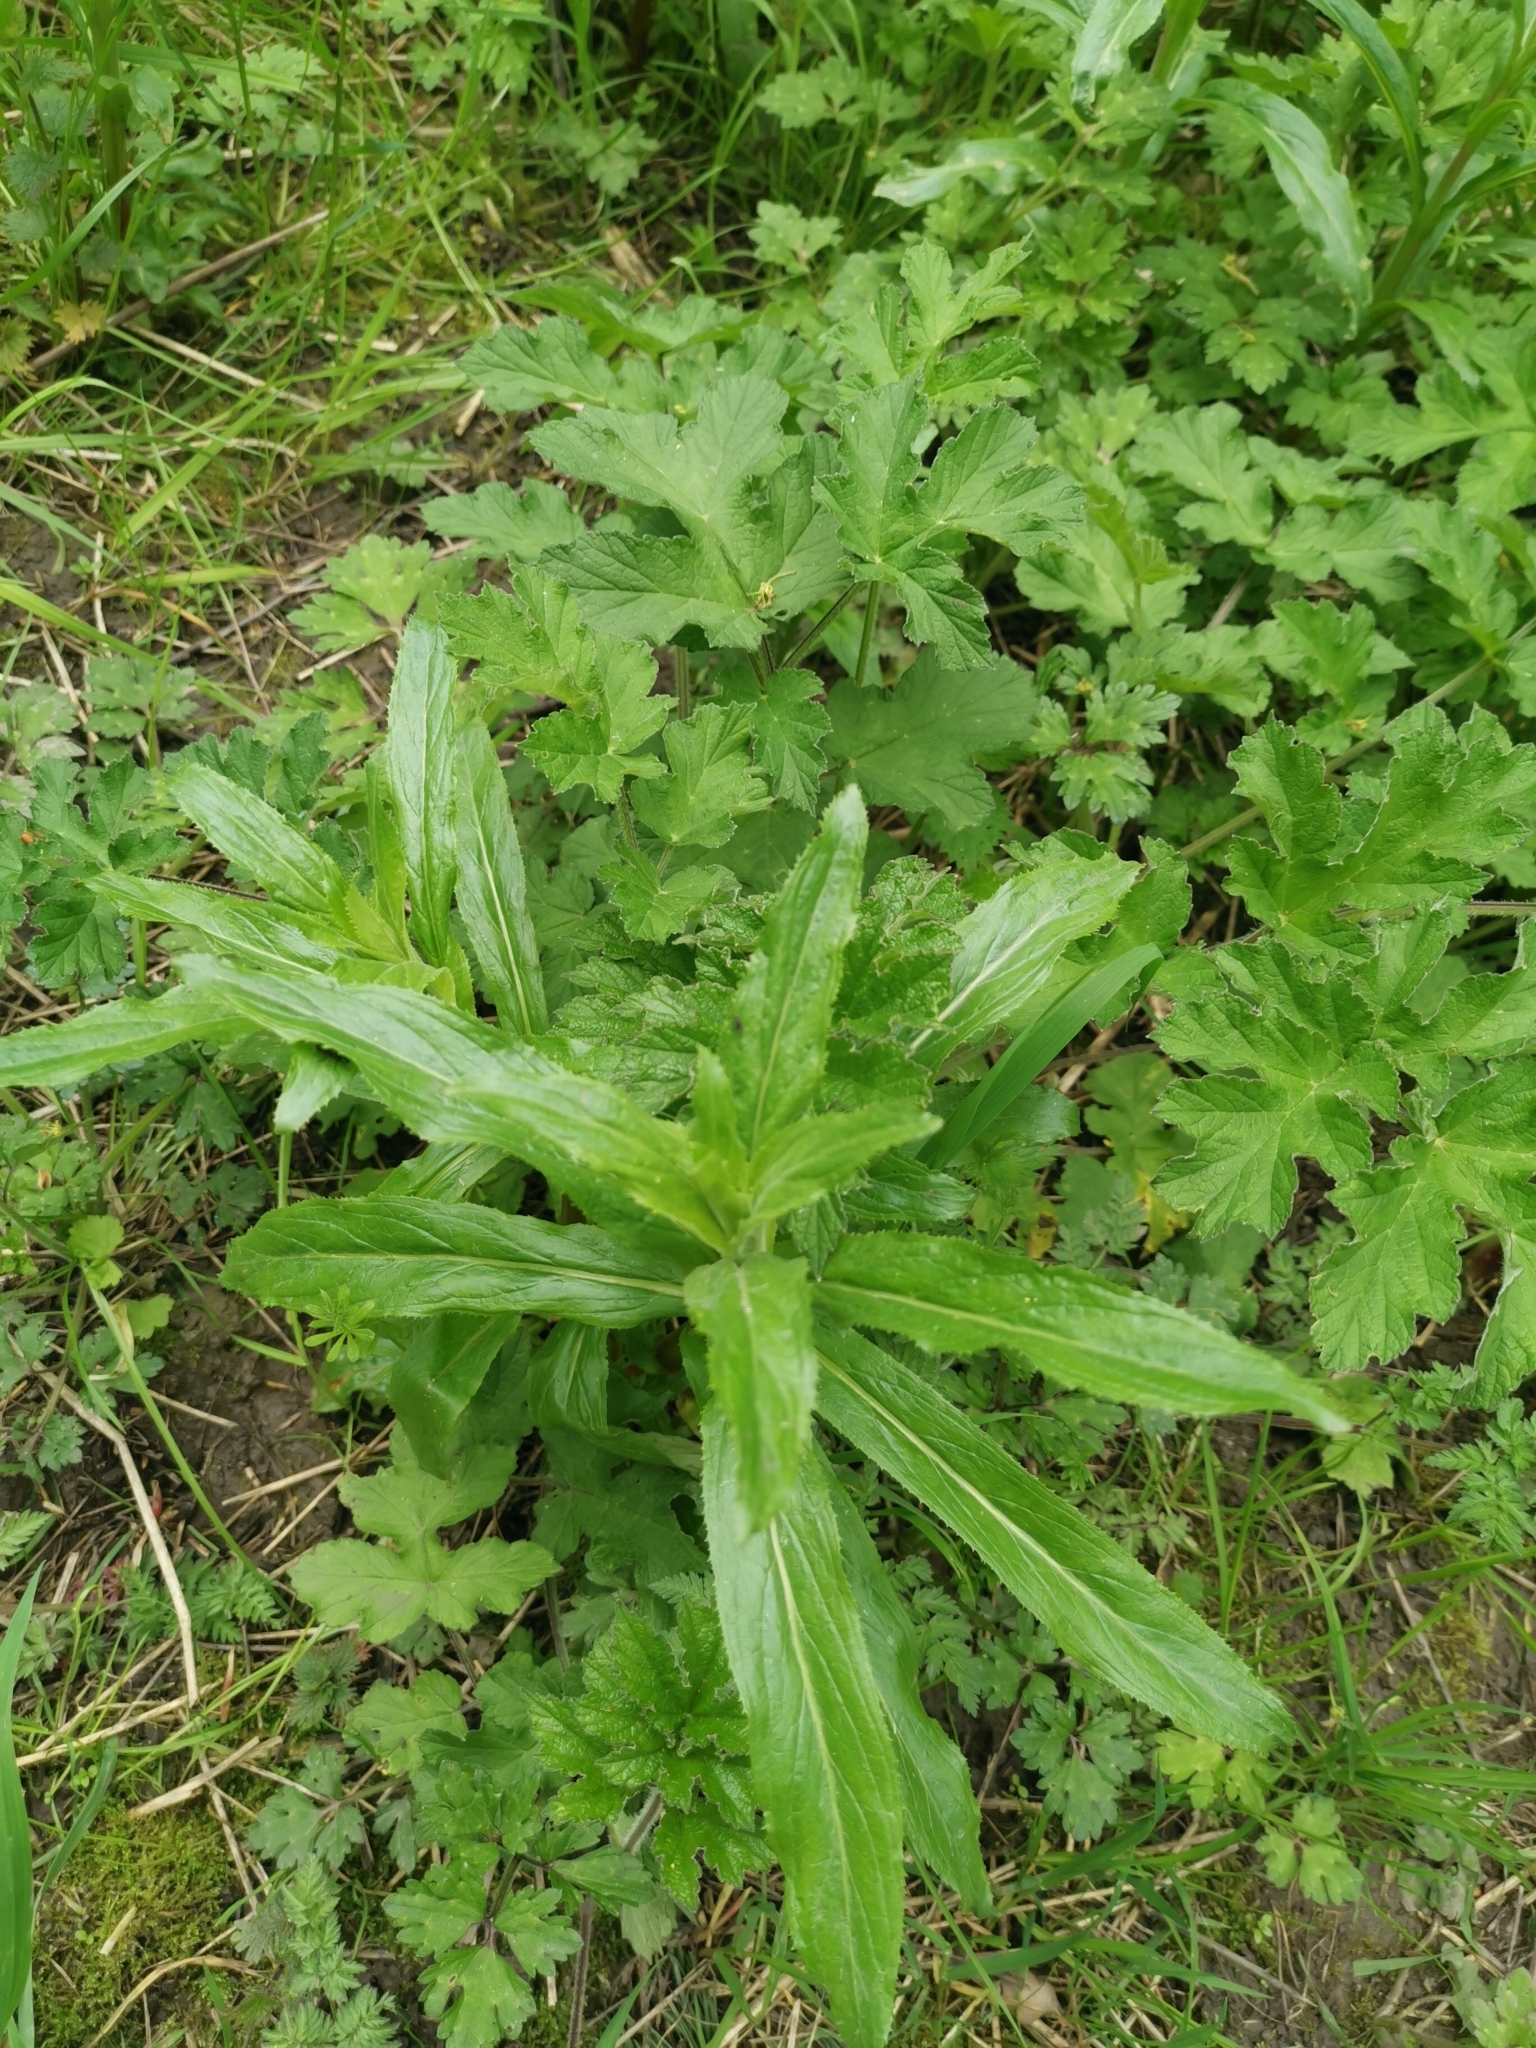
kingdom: Plantae
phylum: Tracheophyta
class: Magnoliopsida
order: Myrtales
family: Onagraceae
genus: Epilobium
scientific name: Epilobium hirsutum
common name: Great willowherb
